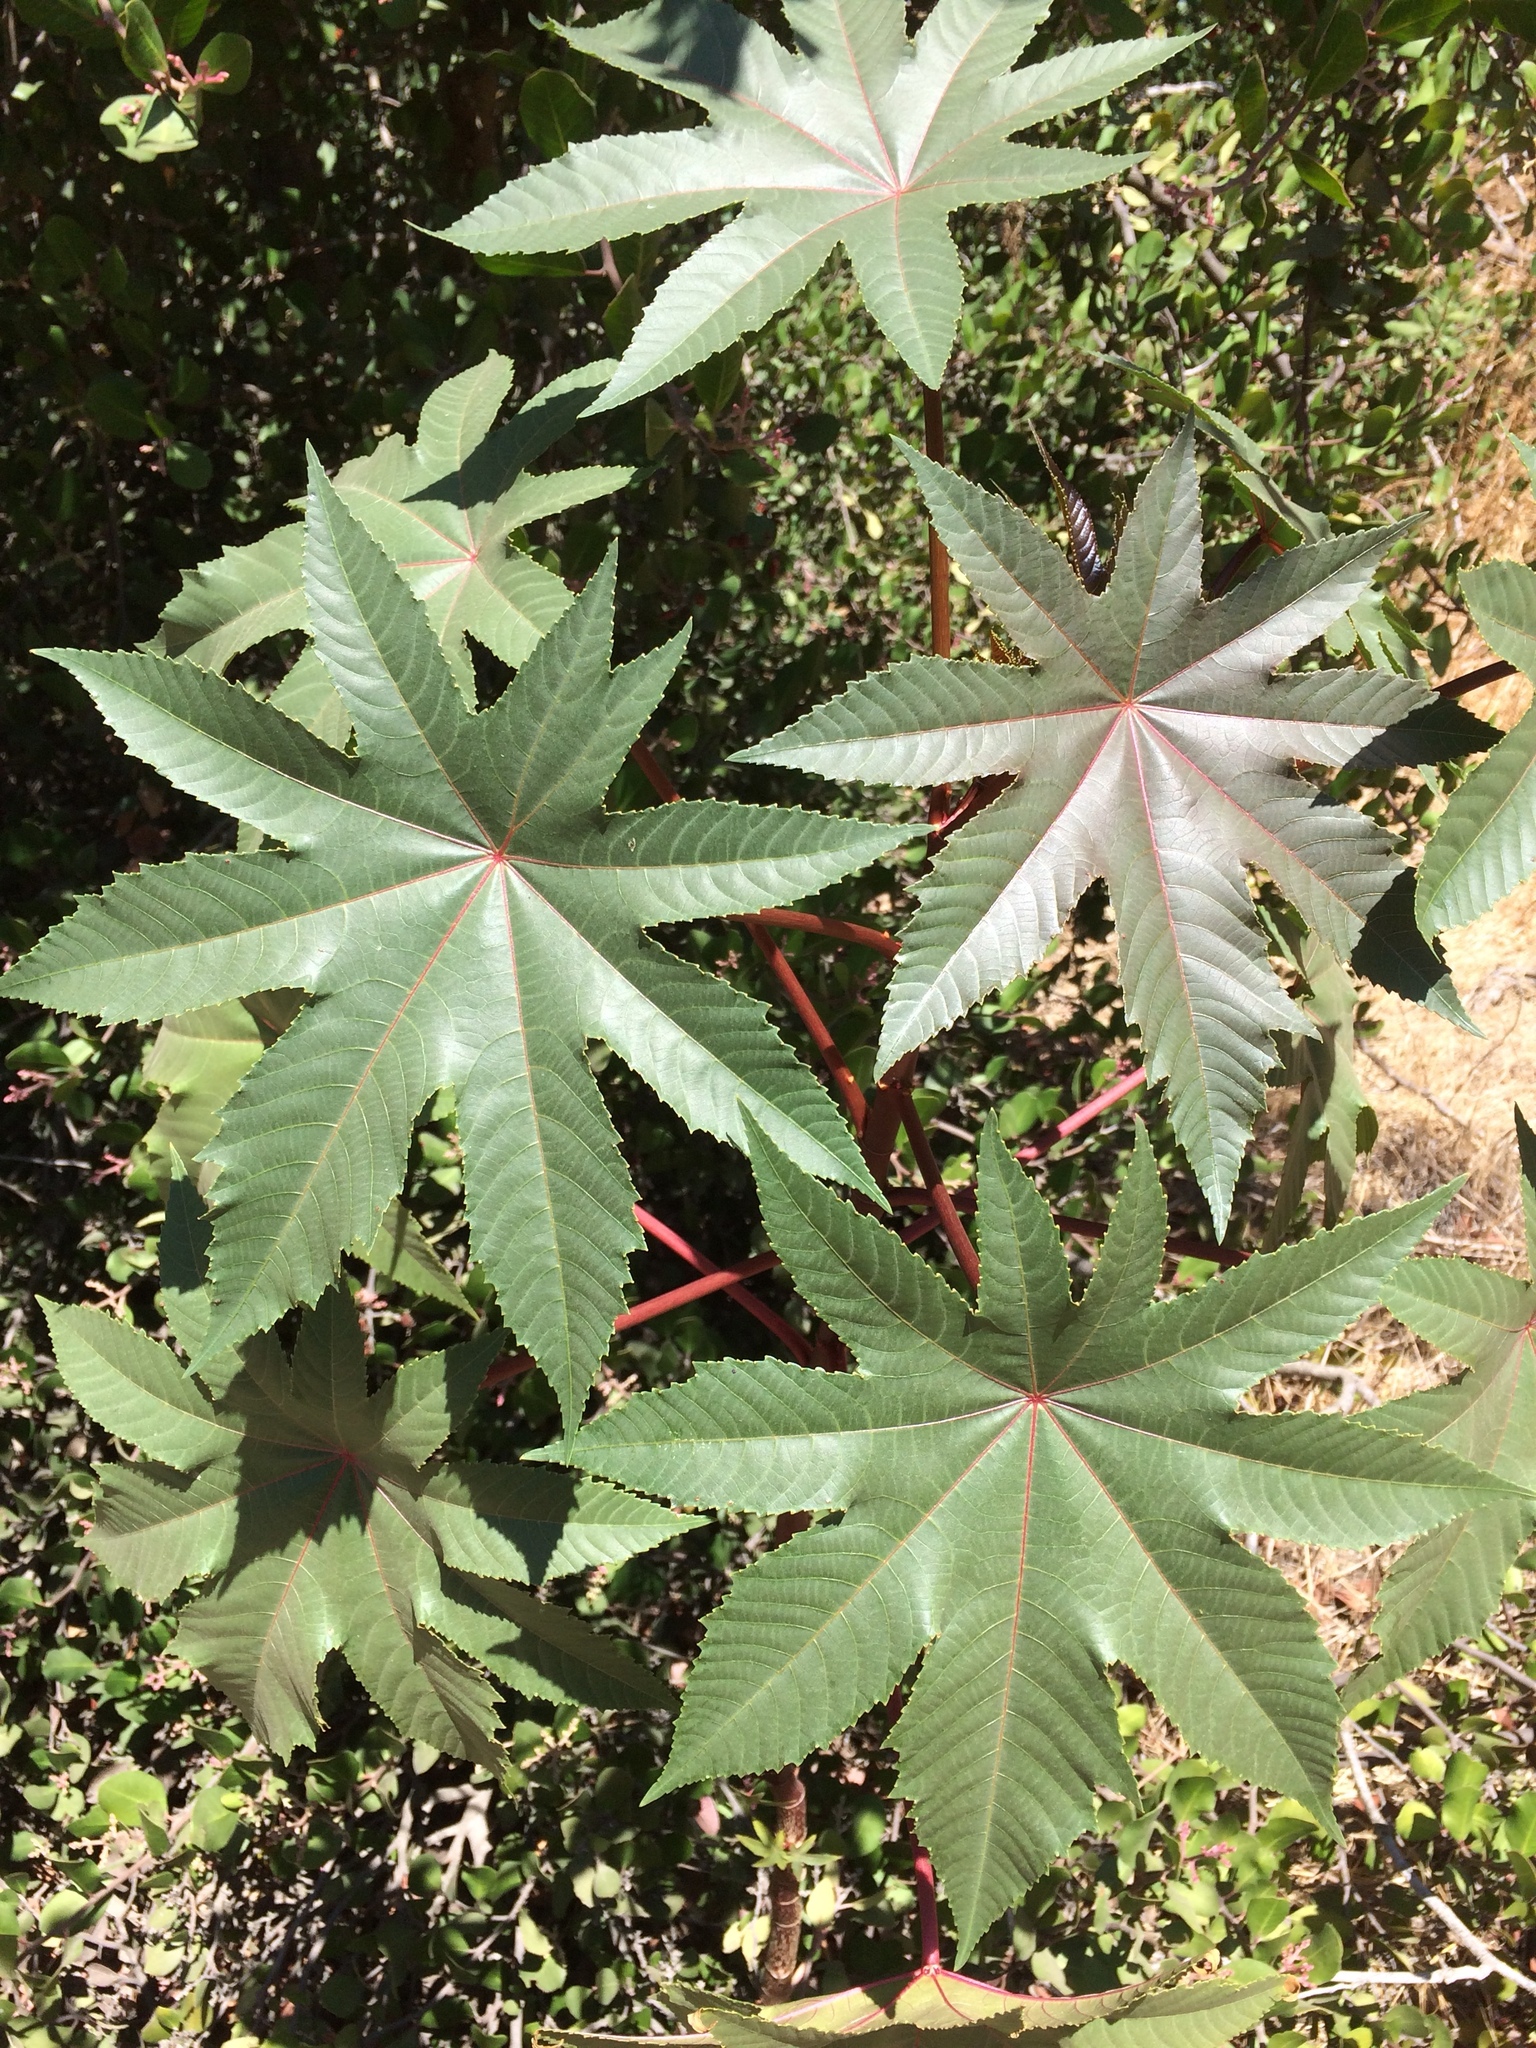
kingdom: Plantae
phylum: Tracheophyta
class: Magnoliopsida
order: Malpighiales
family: Euphorbiaceae
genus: Ricinus
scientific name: Ricinus communis
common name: Castor-oil-plant
